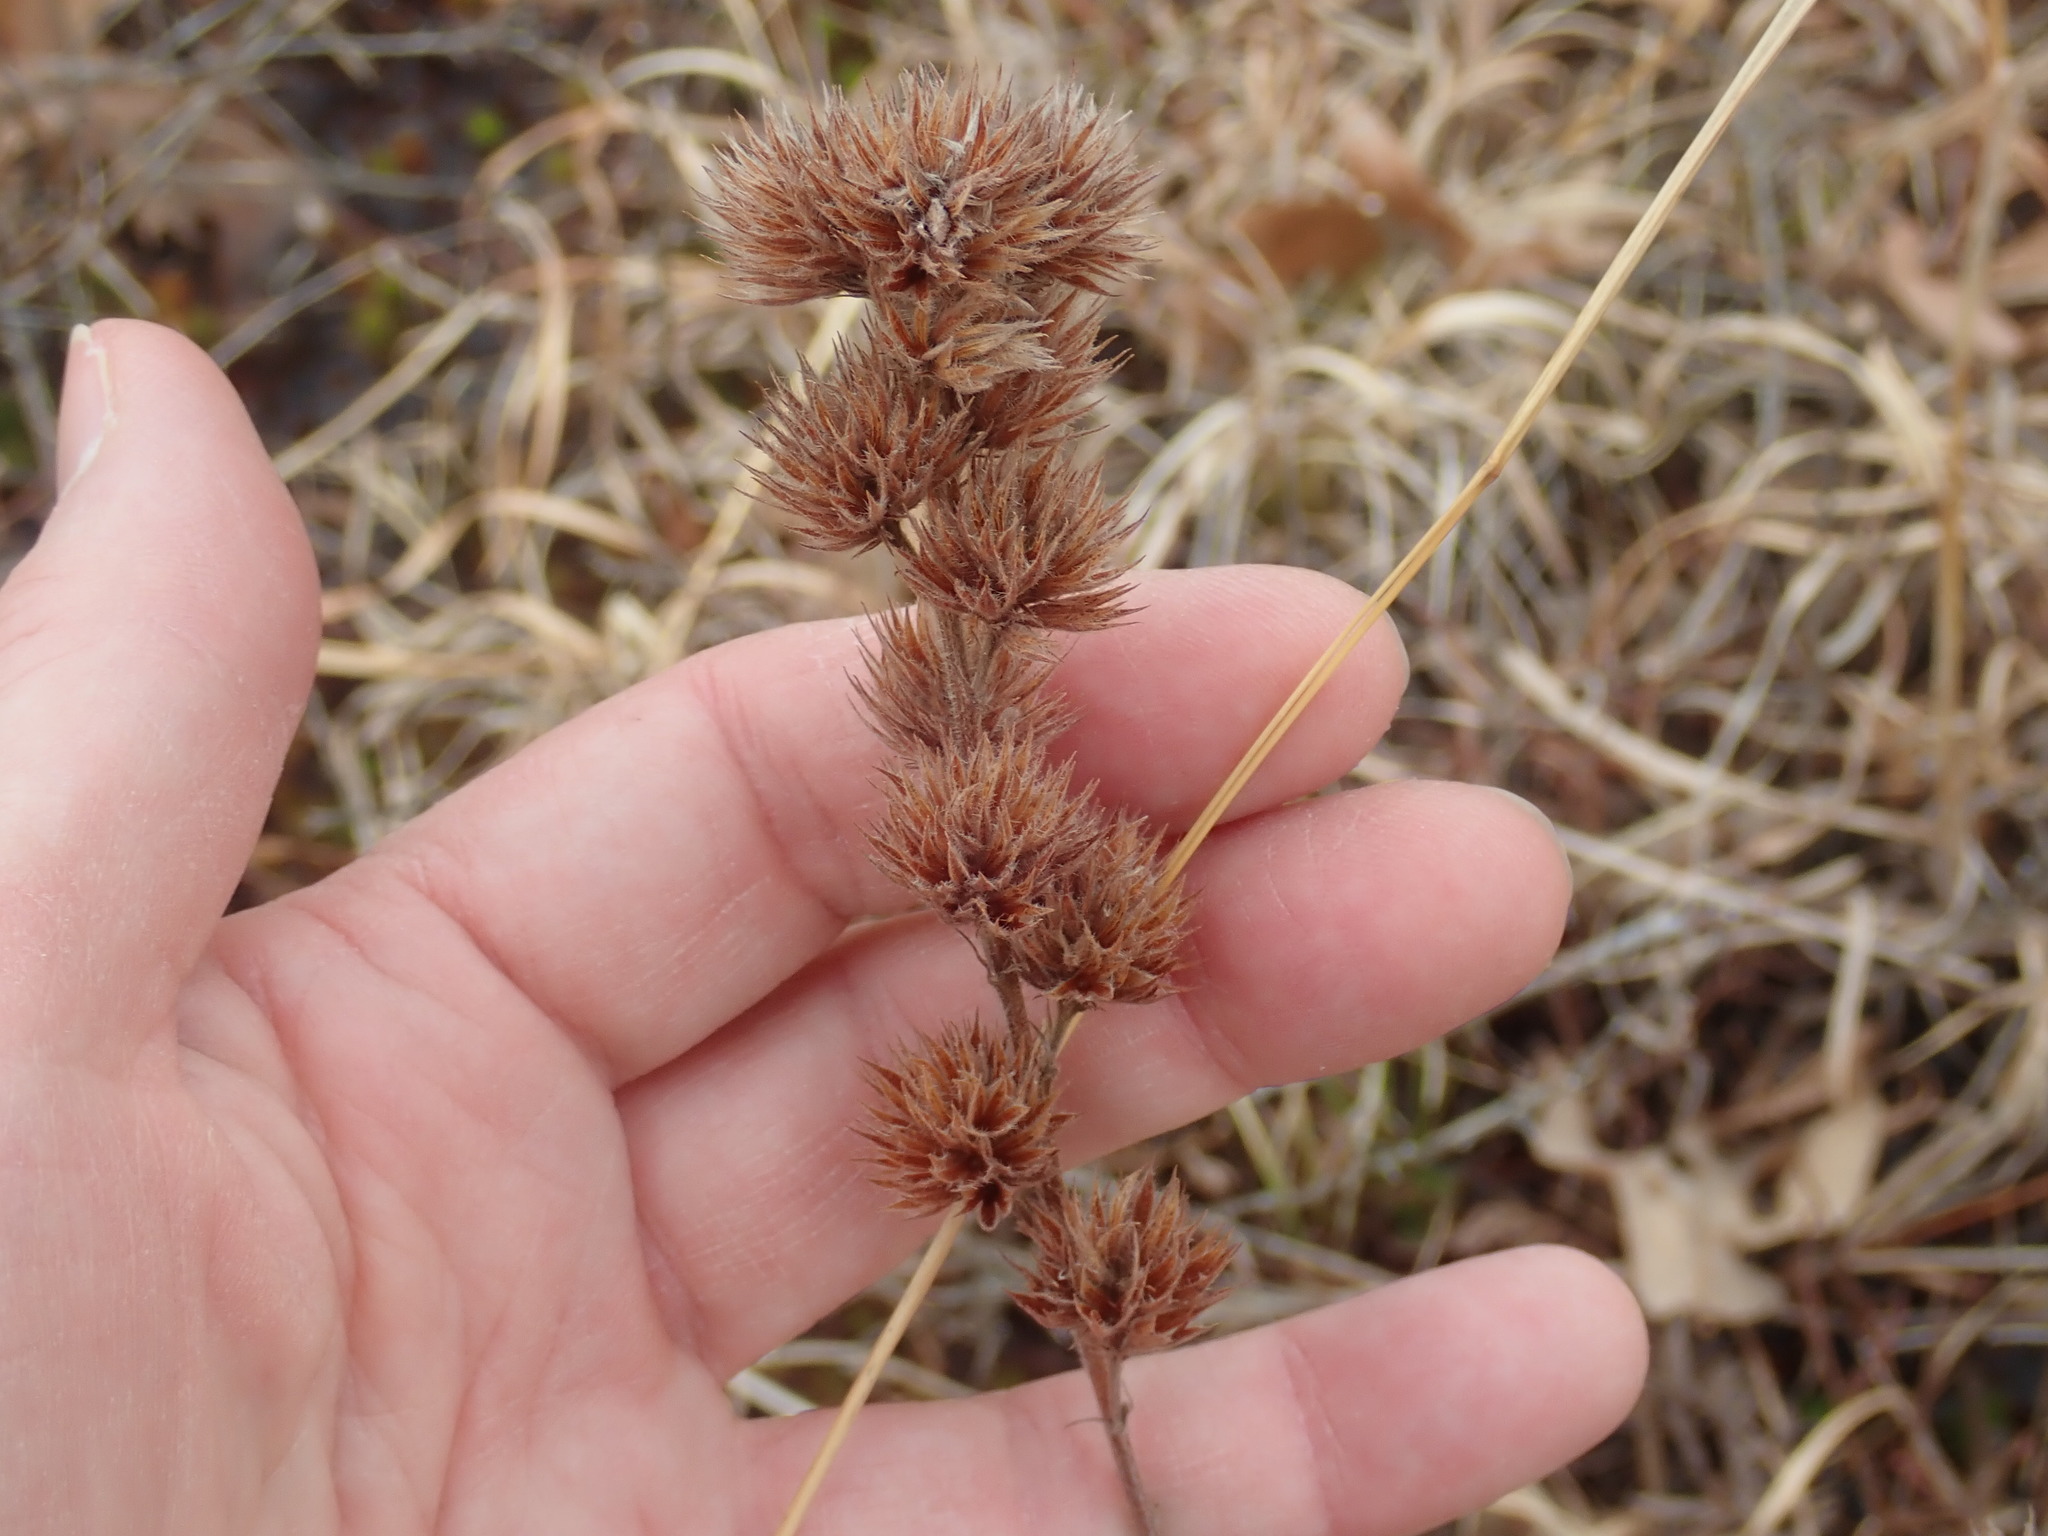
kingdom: Plantae
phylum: Tracheophyta
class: Magnoliopsida
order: Fabales
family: Fabaceae
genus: Lespedeza
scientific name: Lespedeza capitata
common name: Dusty clover
